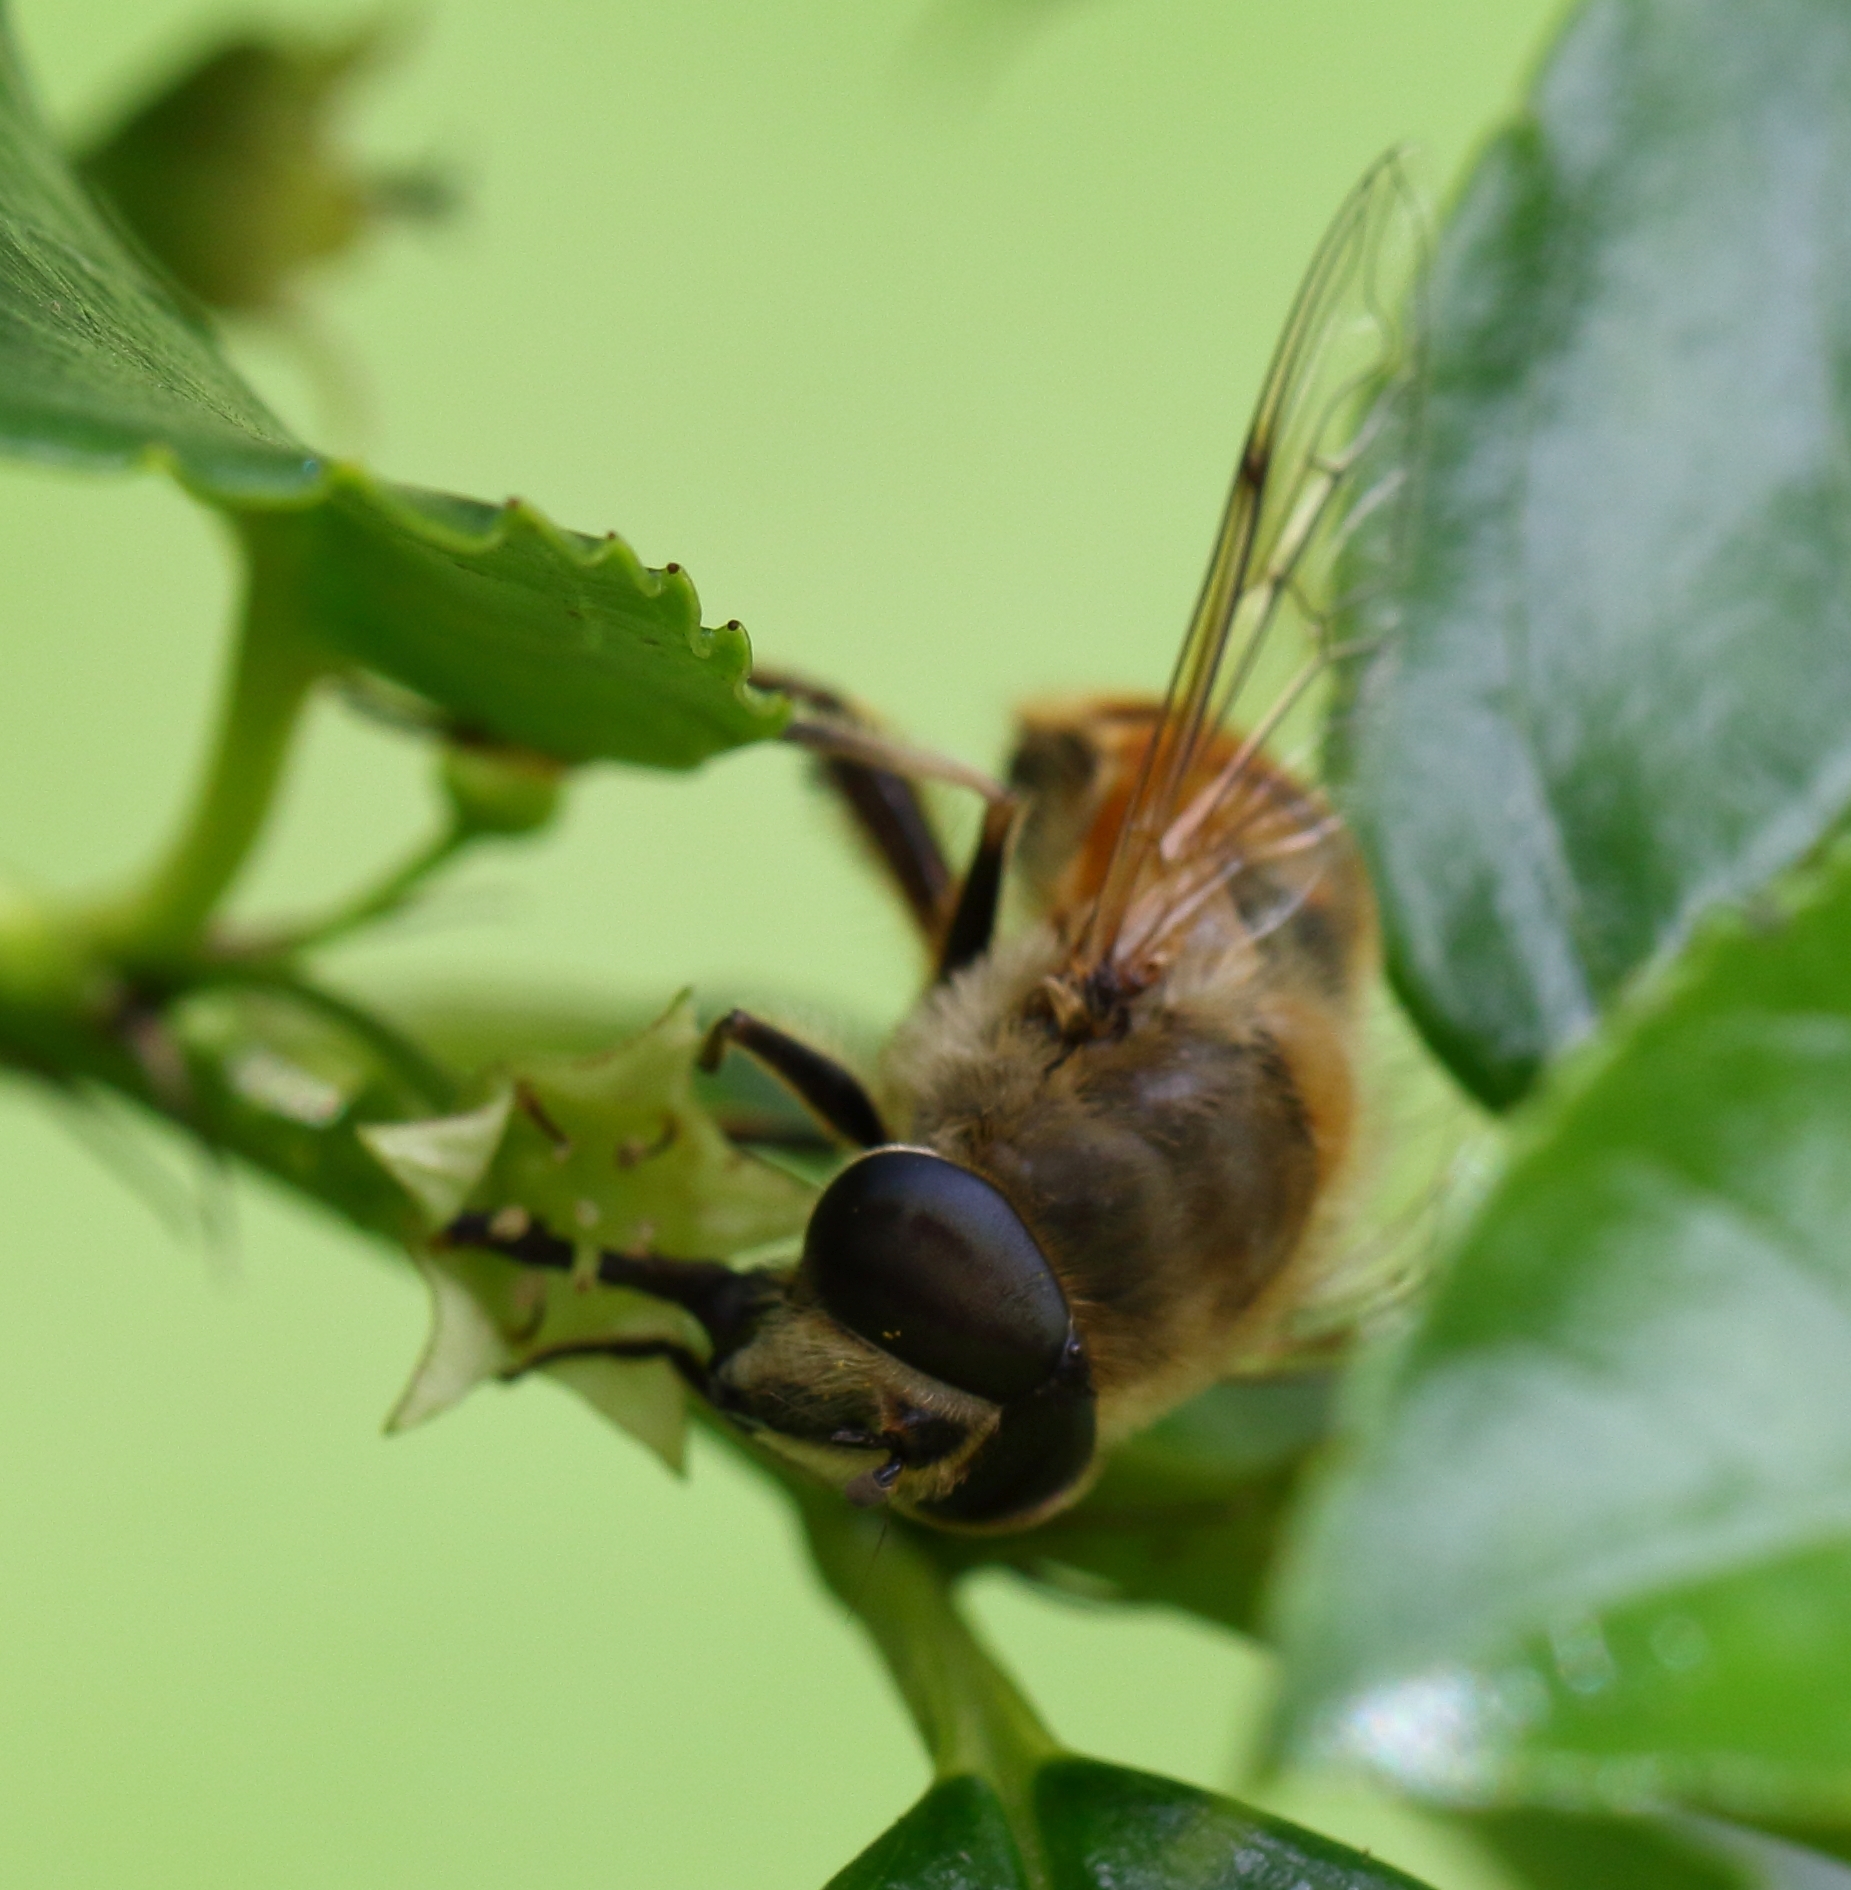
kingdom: Animalia
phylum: Arthropoda
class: Insecta
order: Diptera
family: Syrphidae
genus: Eristalis
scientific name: Eristalis tenax
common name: Drone fly
